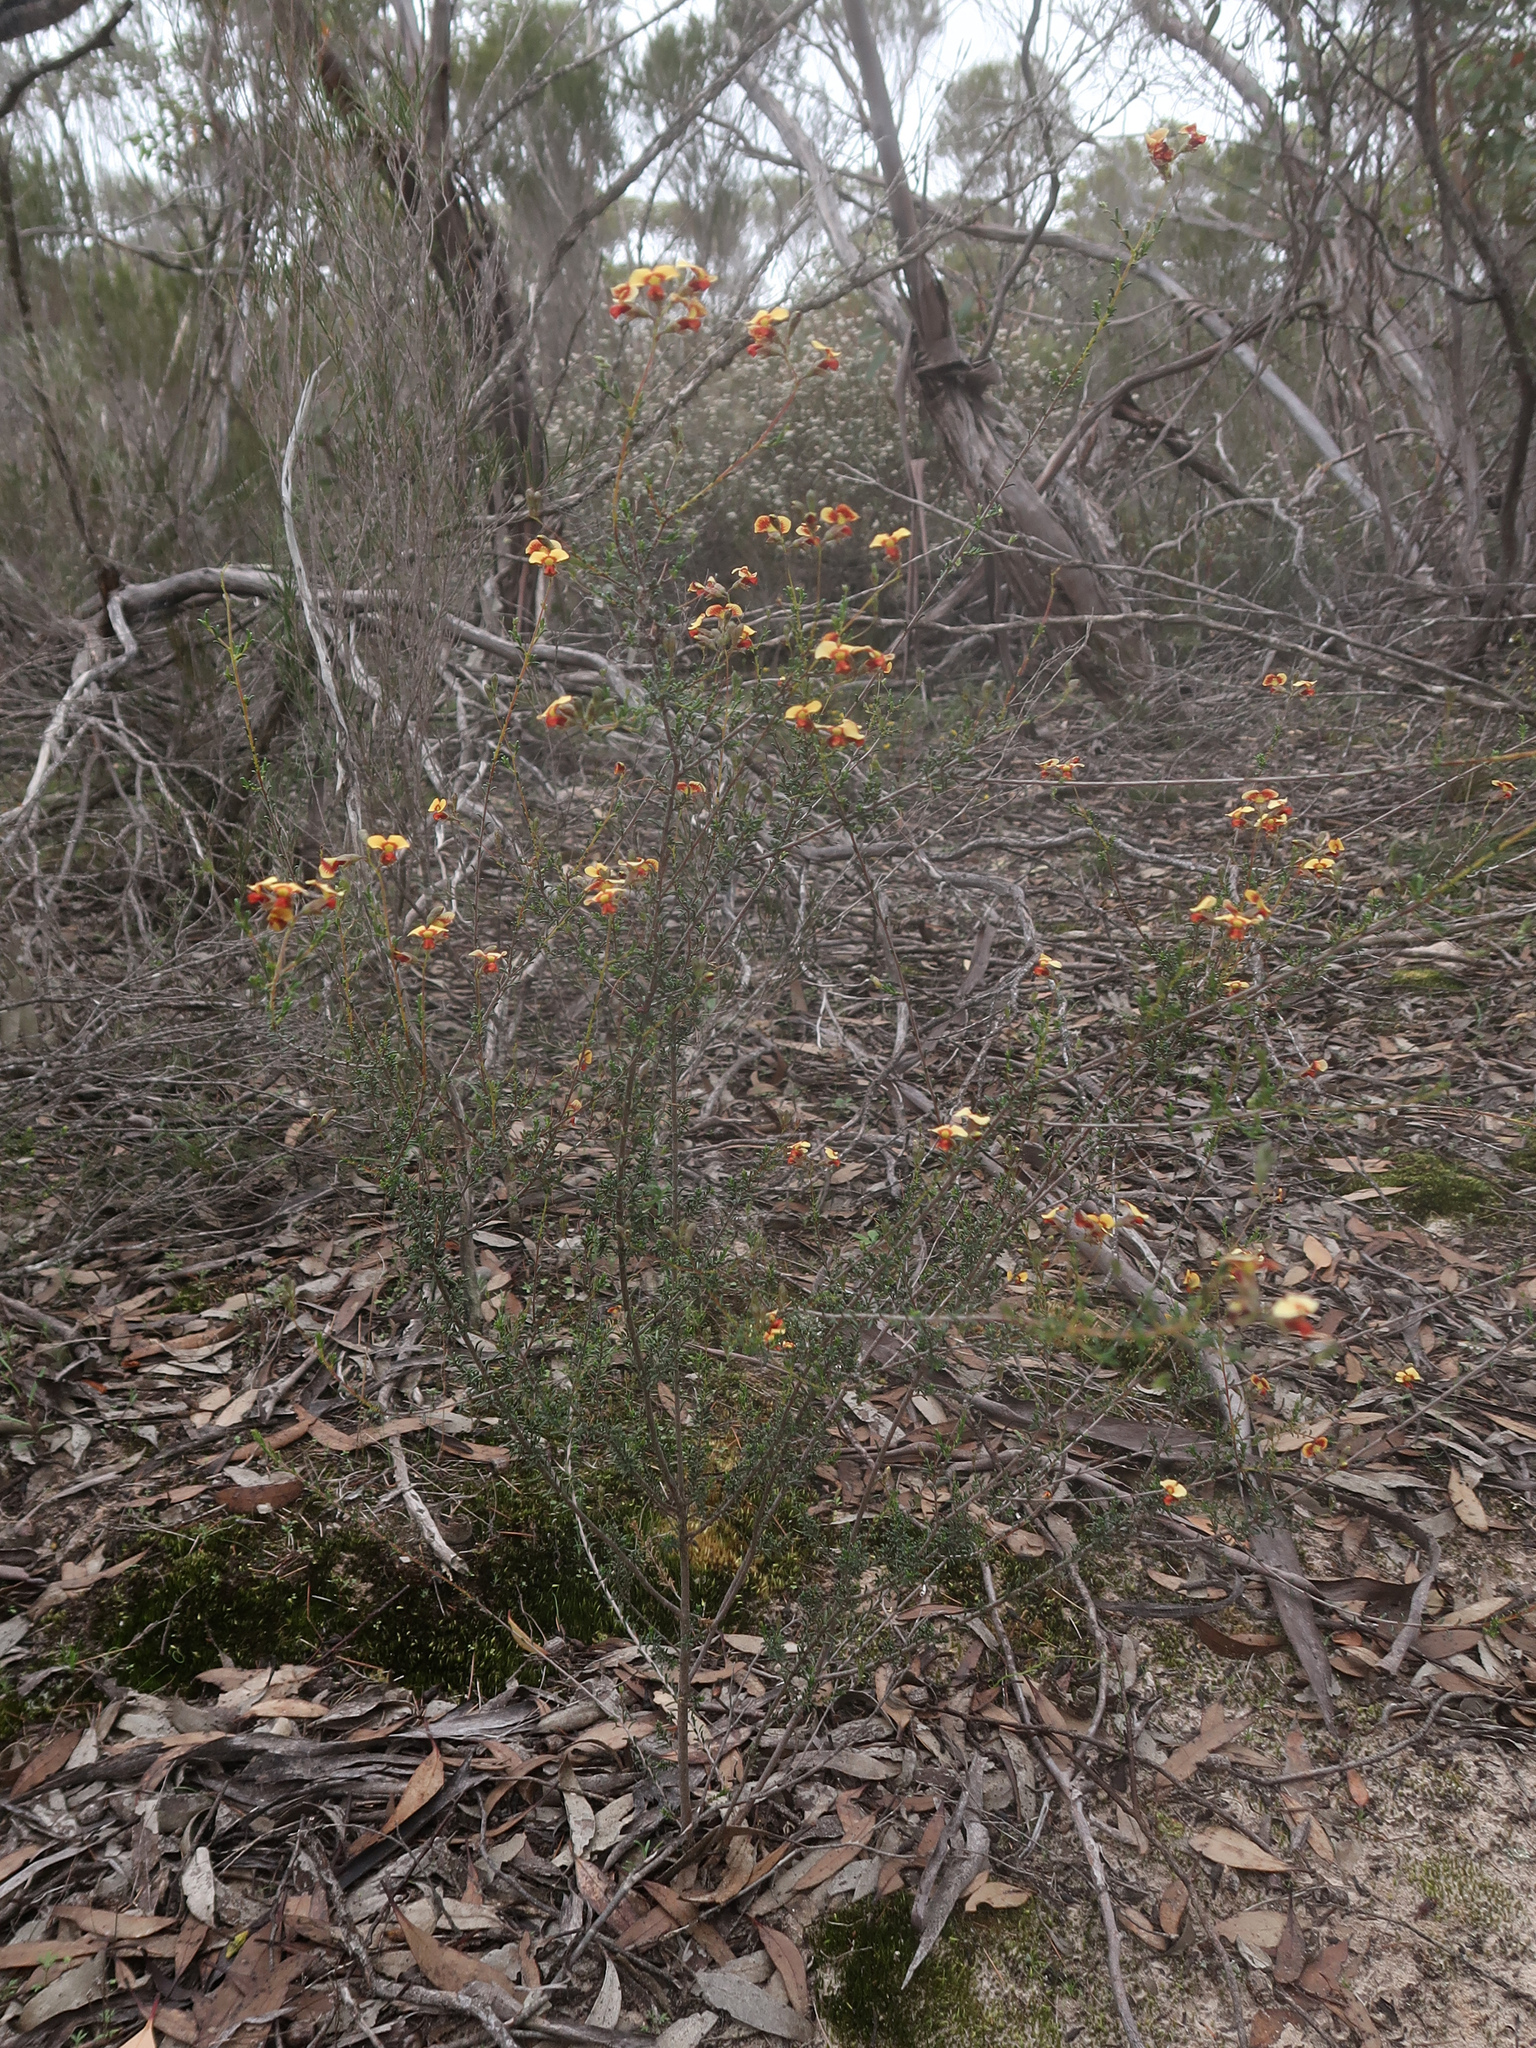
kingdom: Plantae
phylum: Tracheophyta
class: Magnoliopsida
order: Fabales
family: Fabaceae
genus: Dillwynia
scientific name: Dillwynia hispida
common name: Red parrot-pea
